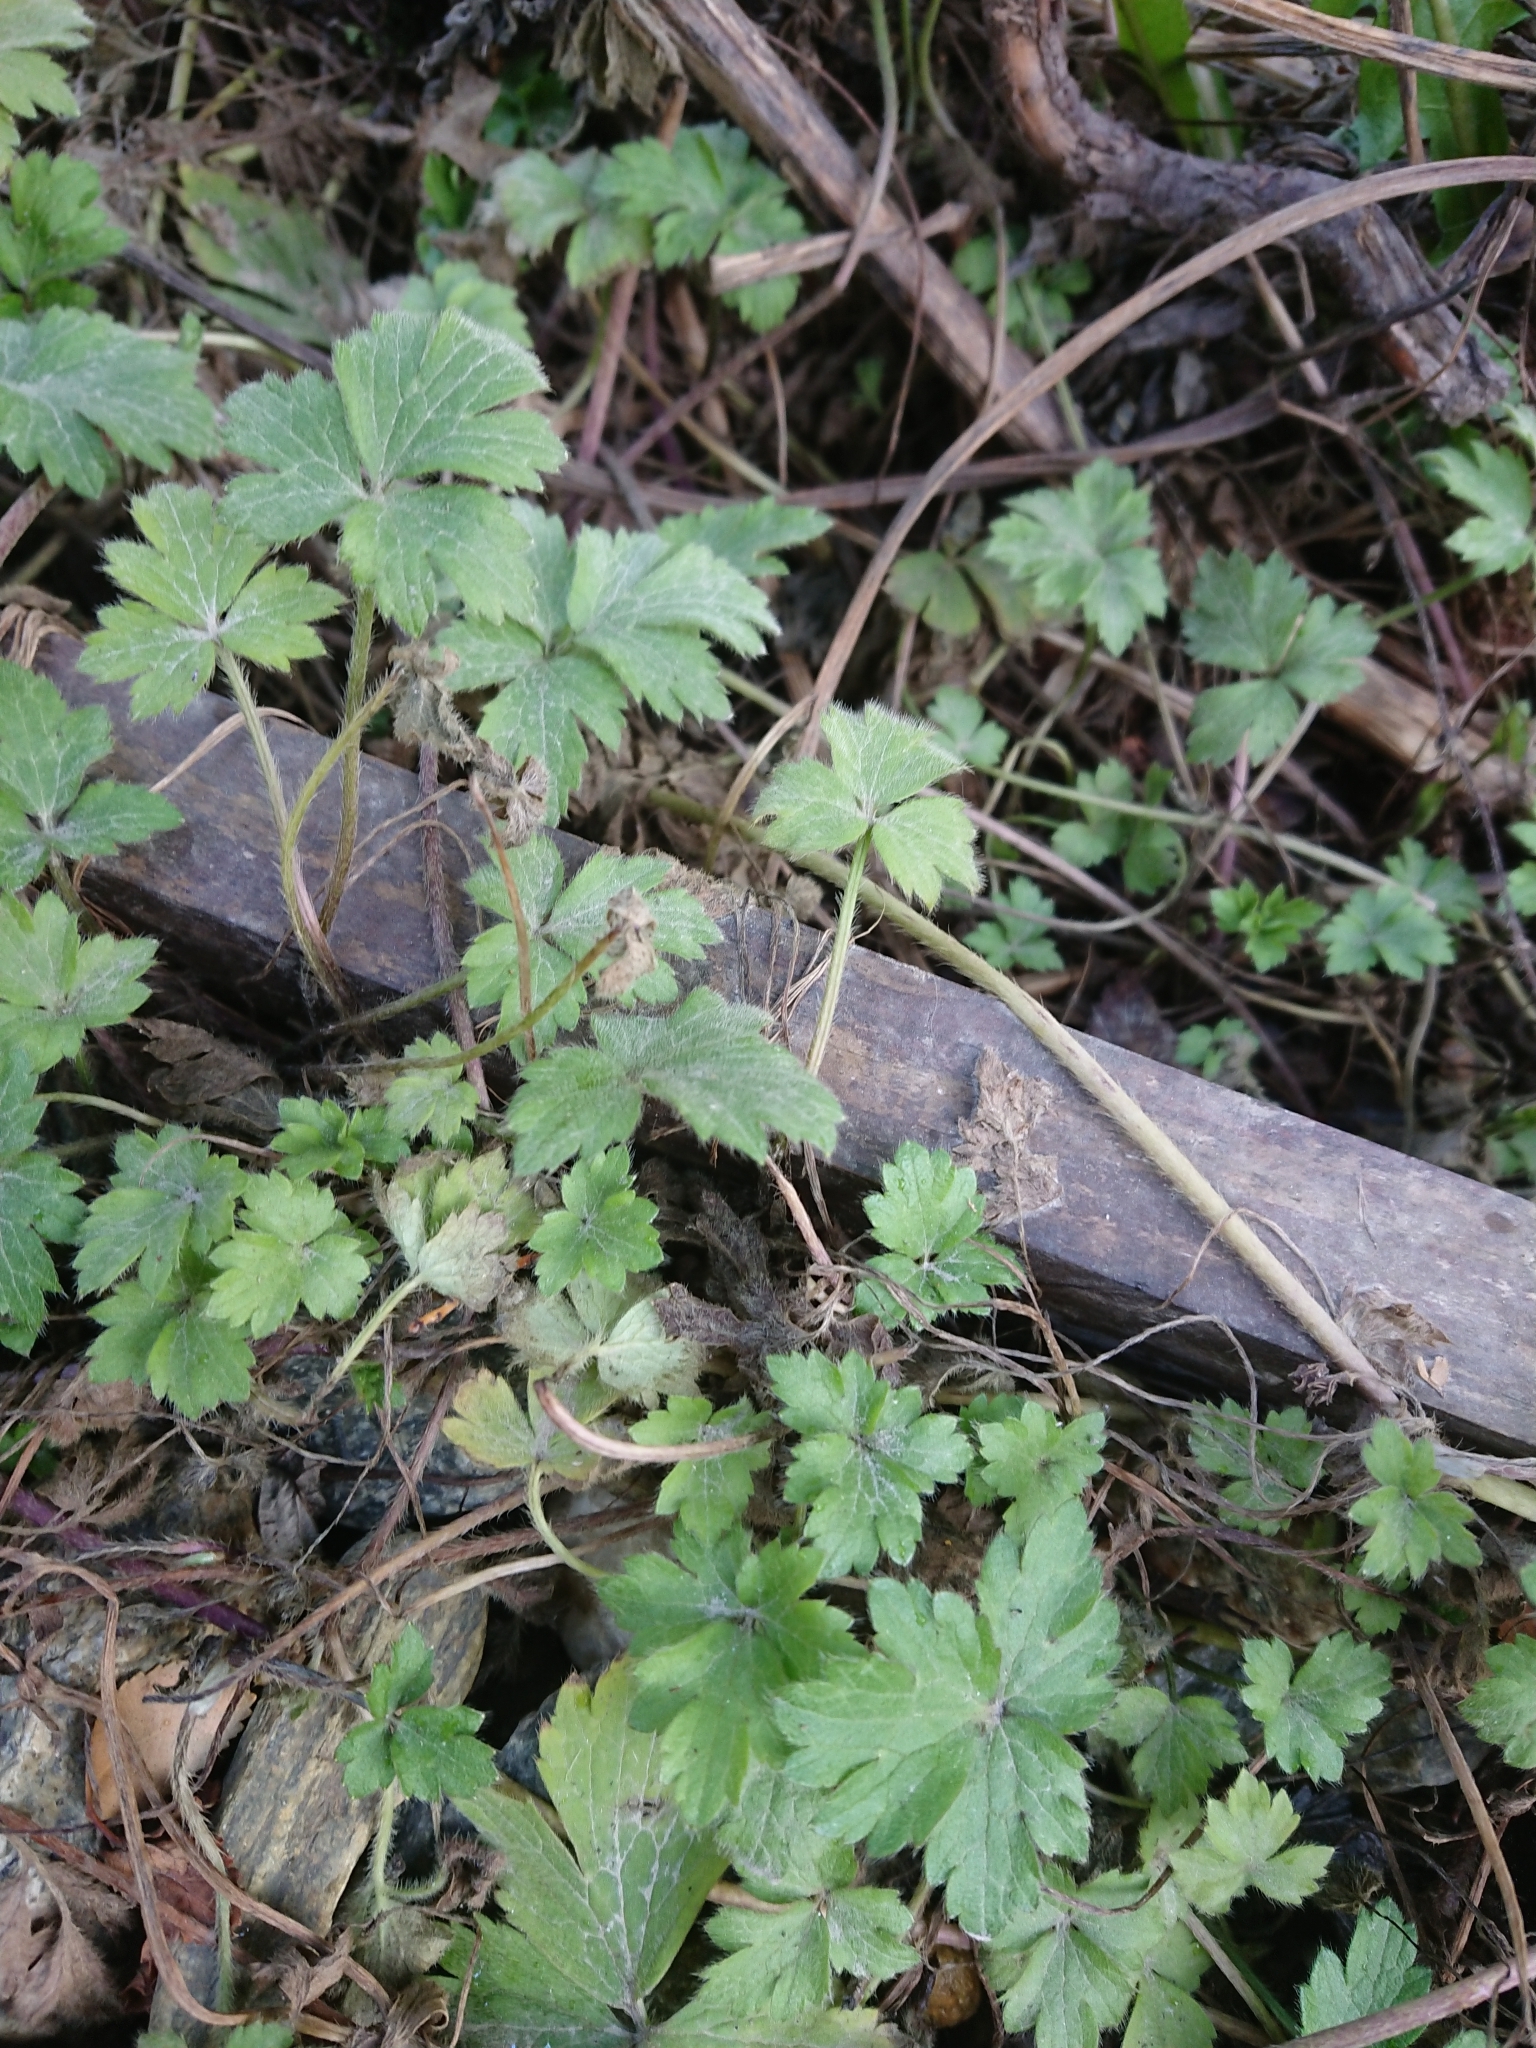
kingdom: Plantae
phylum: Tracheophyta
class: Magnoliopsida
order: Ranunculales
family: Ranunculaceae
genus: Ranunculus
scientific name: Ranunculus repens
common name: Creeping buttercup
